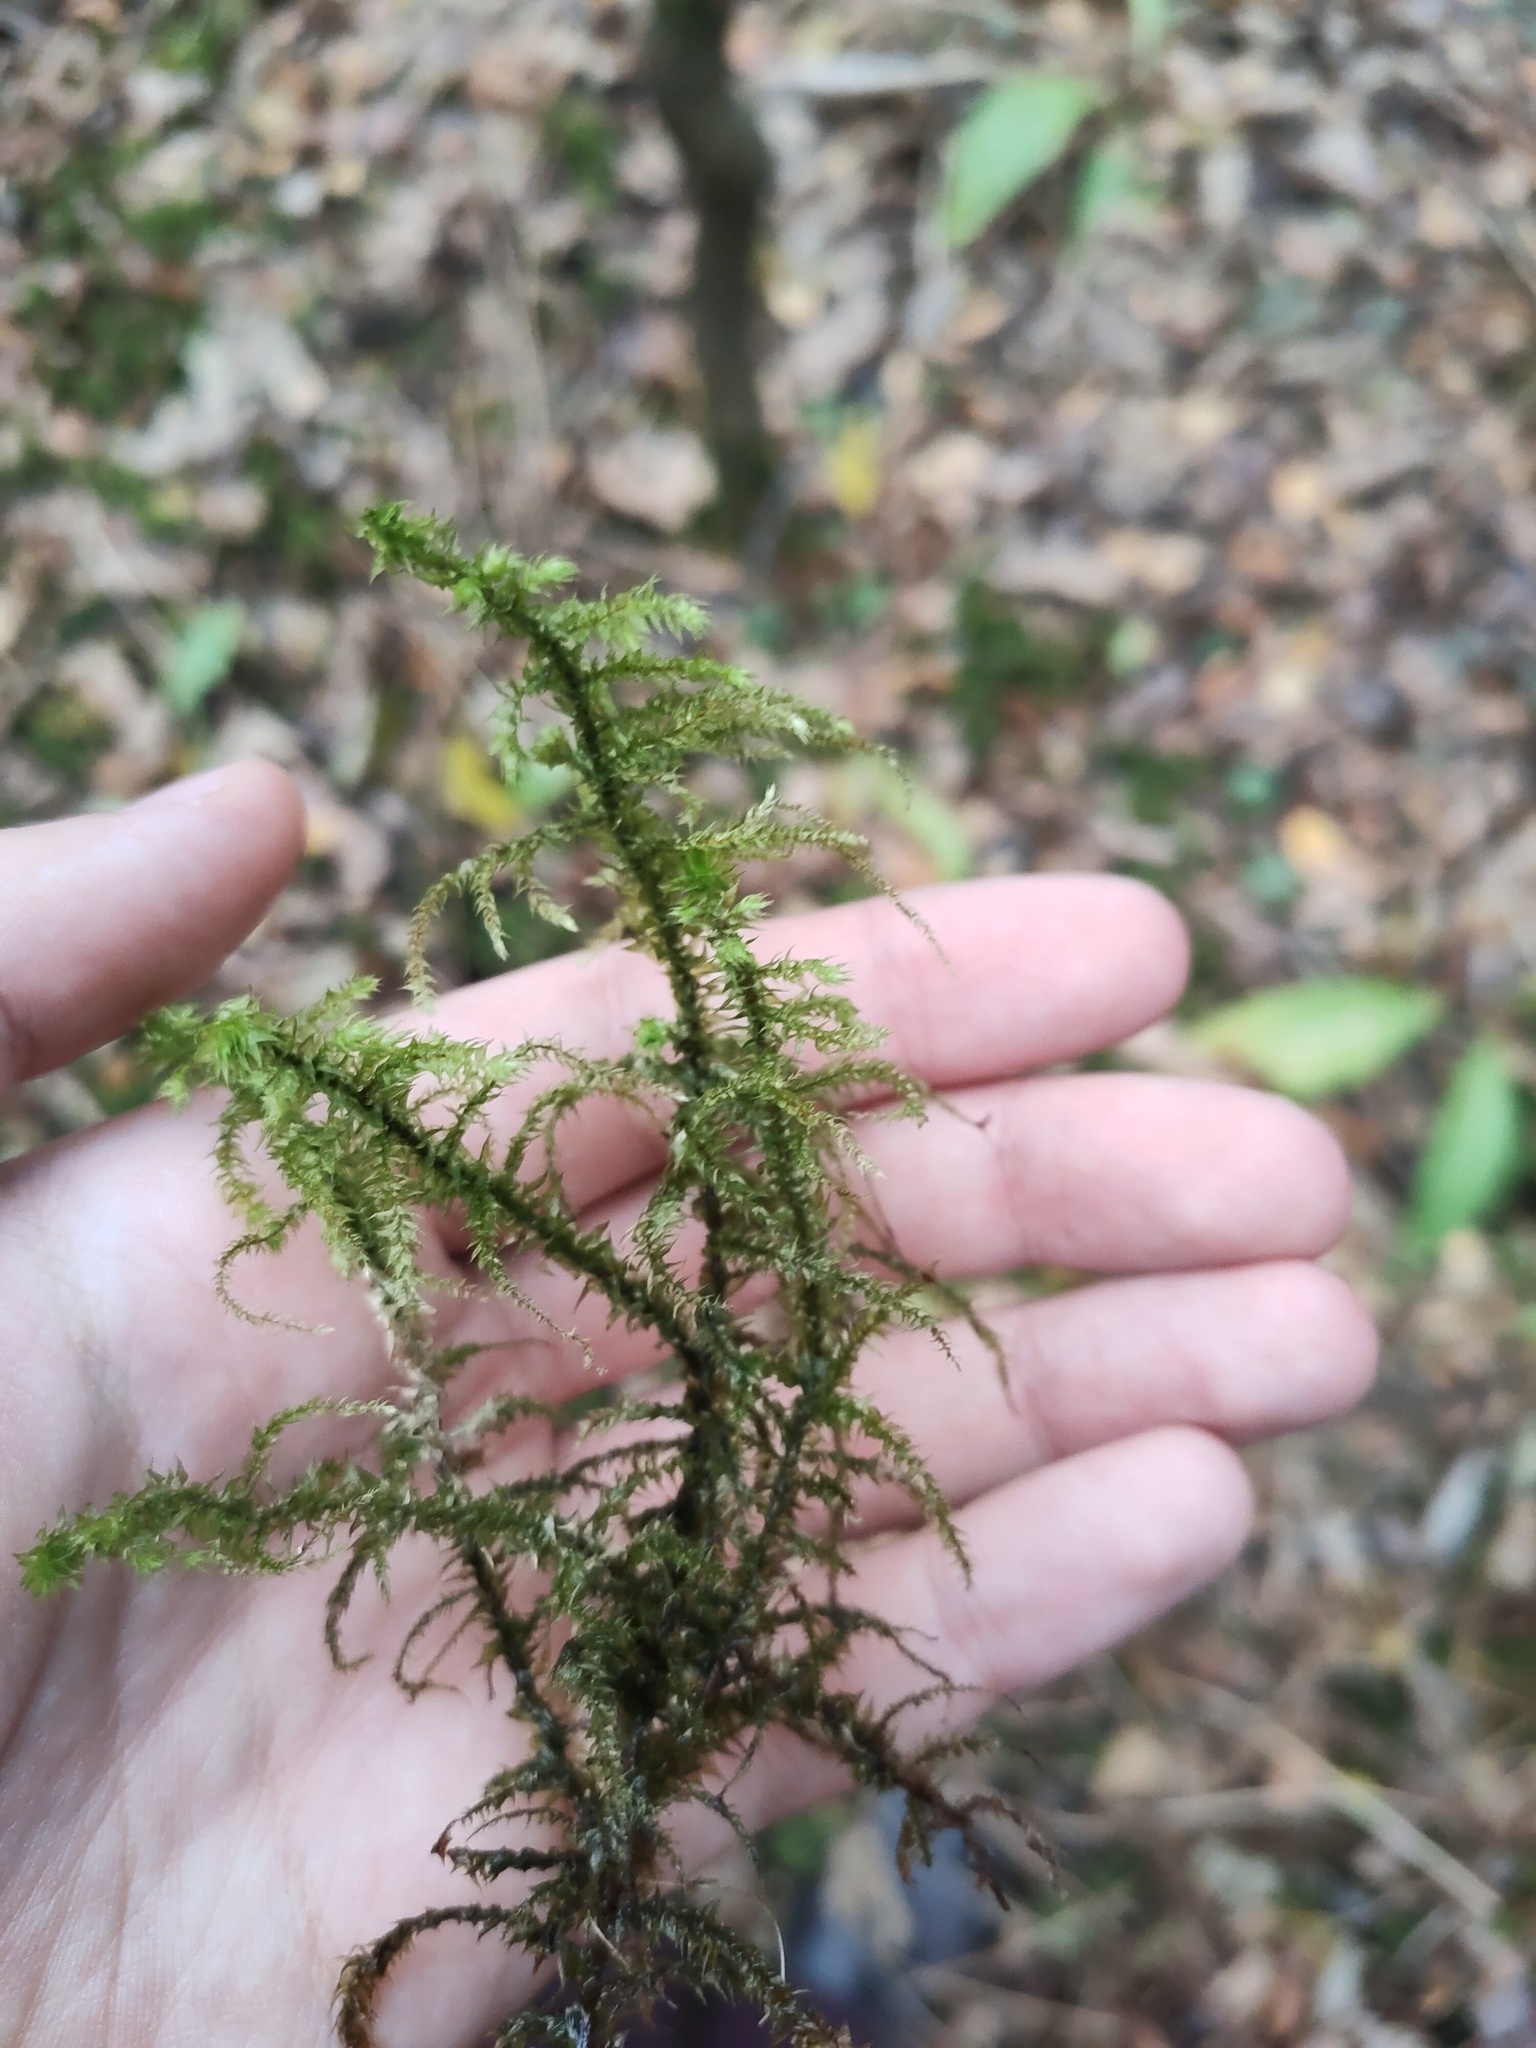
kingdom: Plantae
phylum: Bryophyta
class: Bryopsida
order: Hypnales
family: Hylocomiaceae
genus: Hylocomiadelphus
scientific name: Hylocomiadelphus triquetrus
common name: Rough goose neck moss
